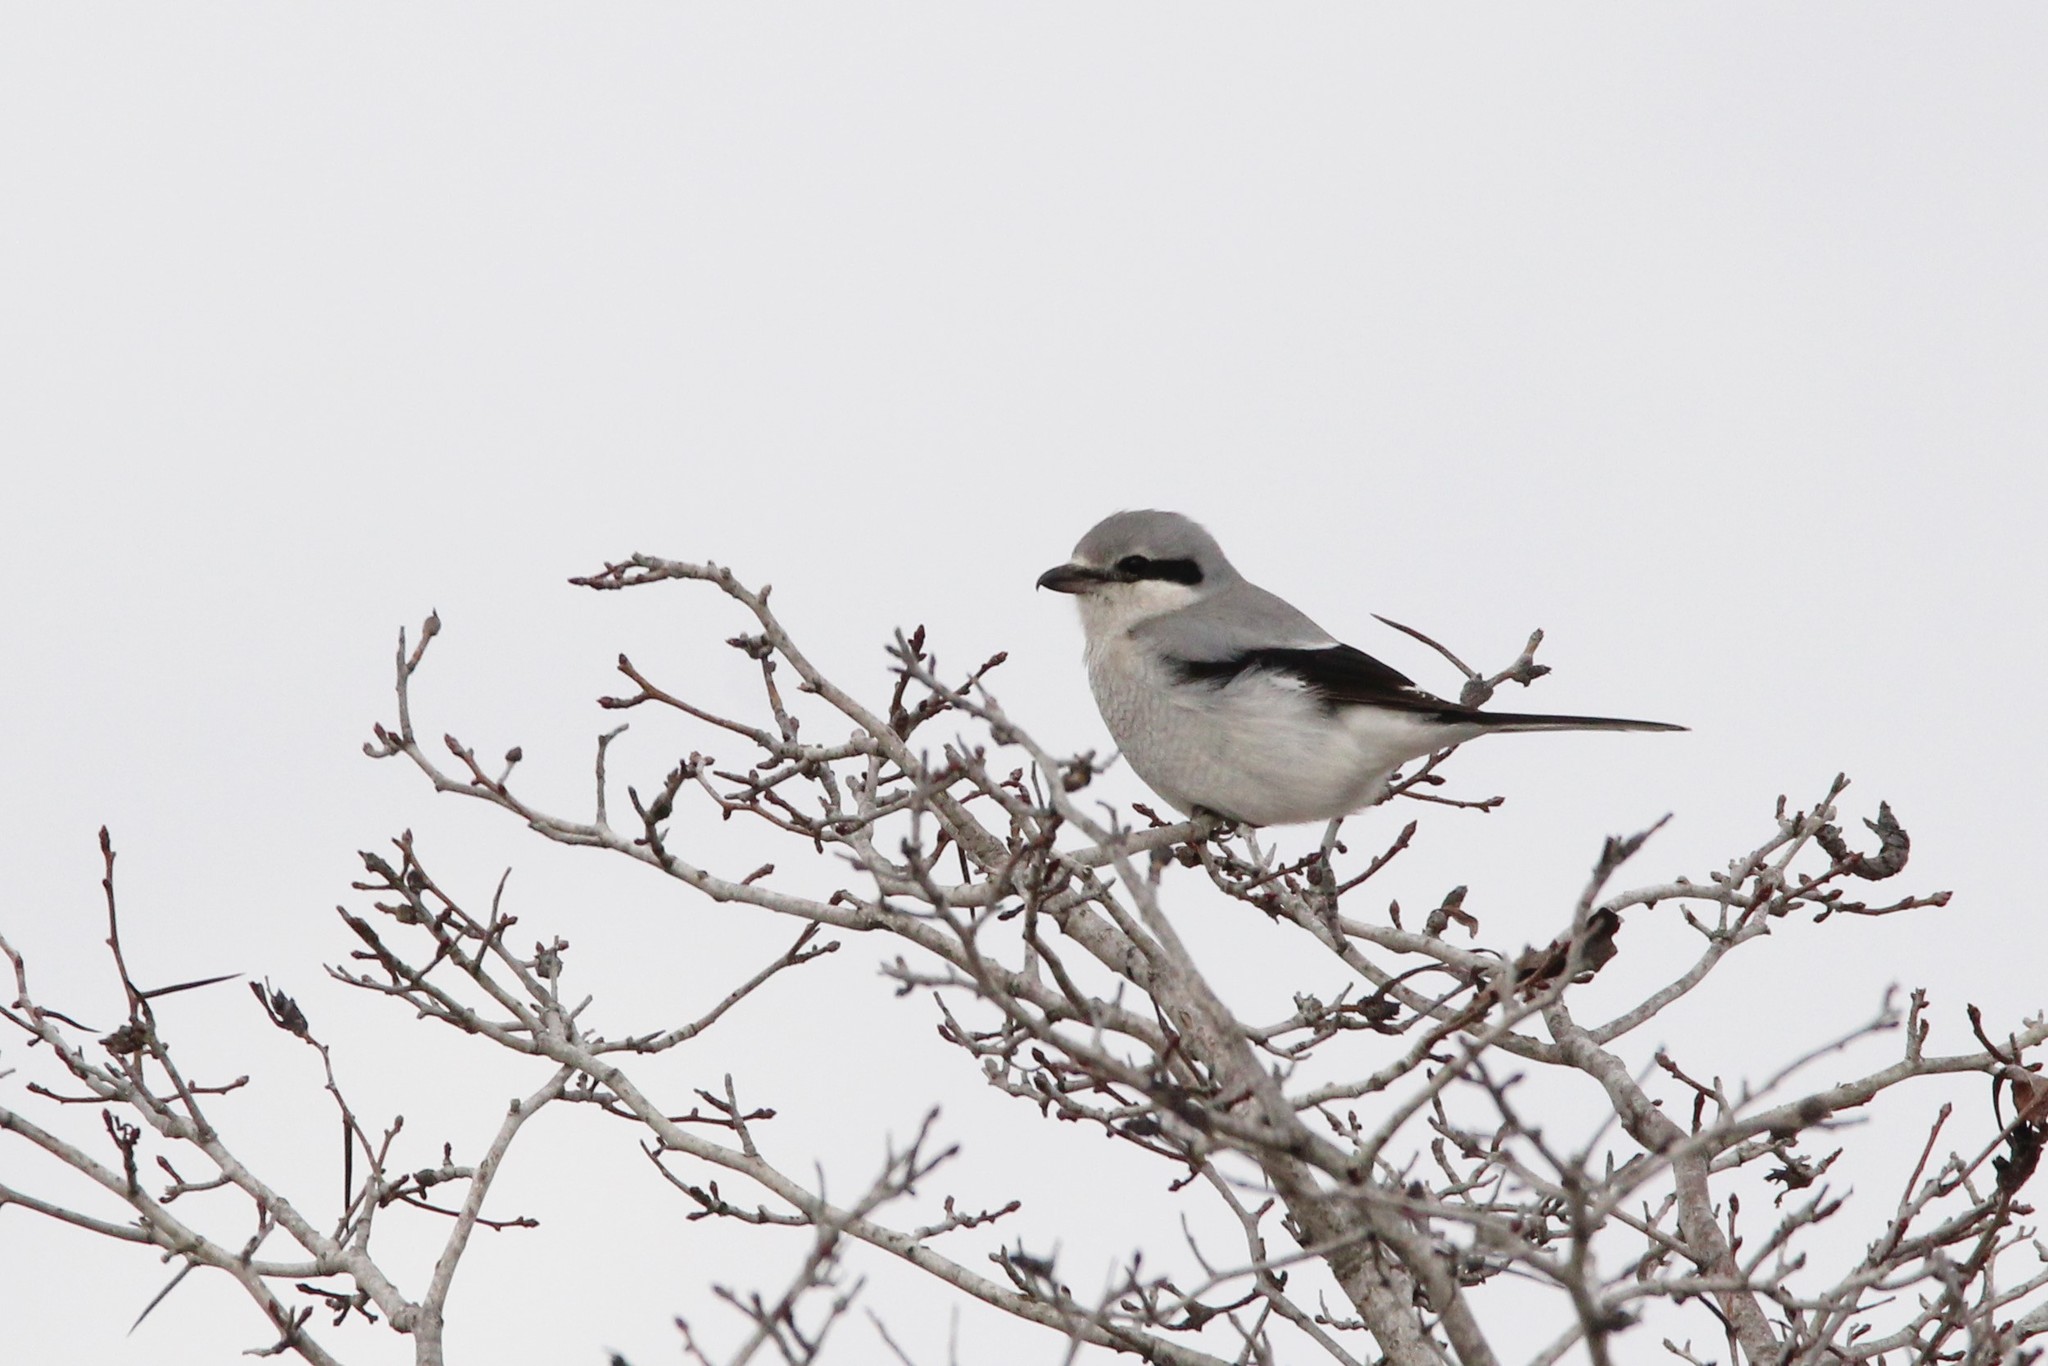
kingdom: Animalia
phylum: Chordata
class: Aves
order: Passeriformes
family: Laniidae
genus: Lanius
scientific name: Lanius borealis
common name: Northern shrike
